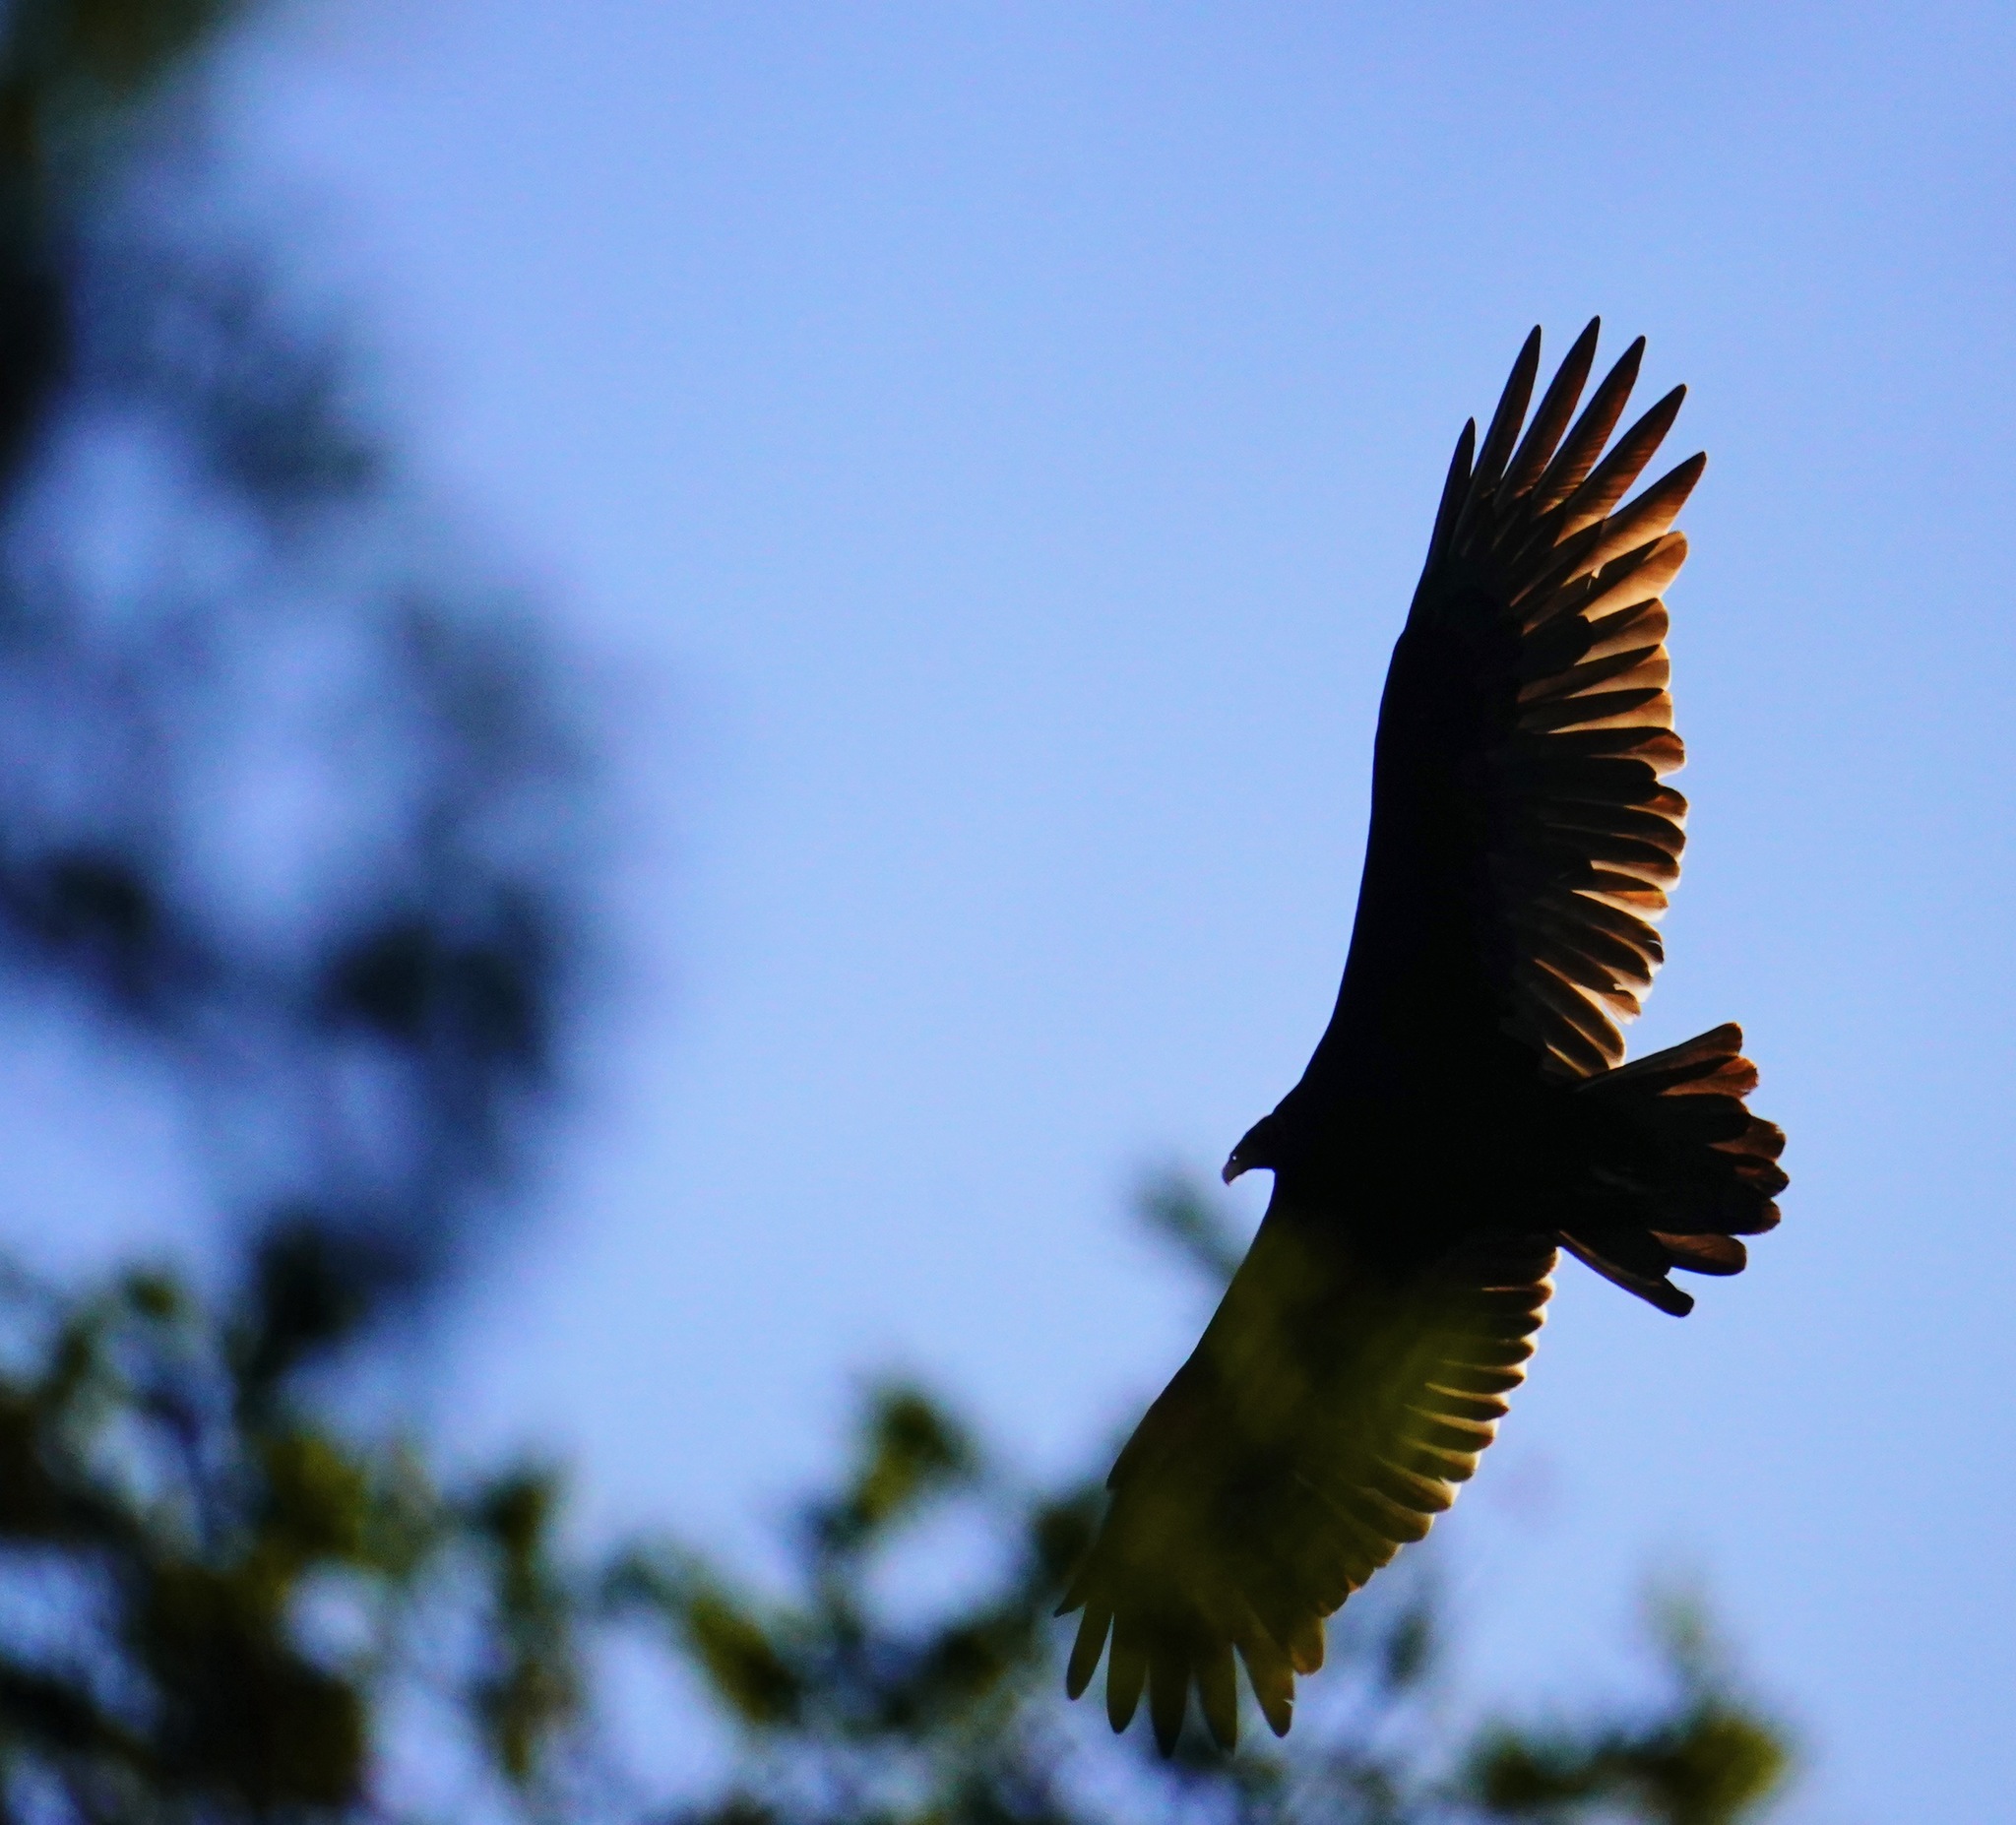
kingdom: Animalia
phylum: Chordata
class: Aves
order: Accipitriformes
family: Cathartidae
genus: Cathartes
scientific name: Cathartes aura
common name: Turkey vulture
